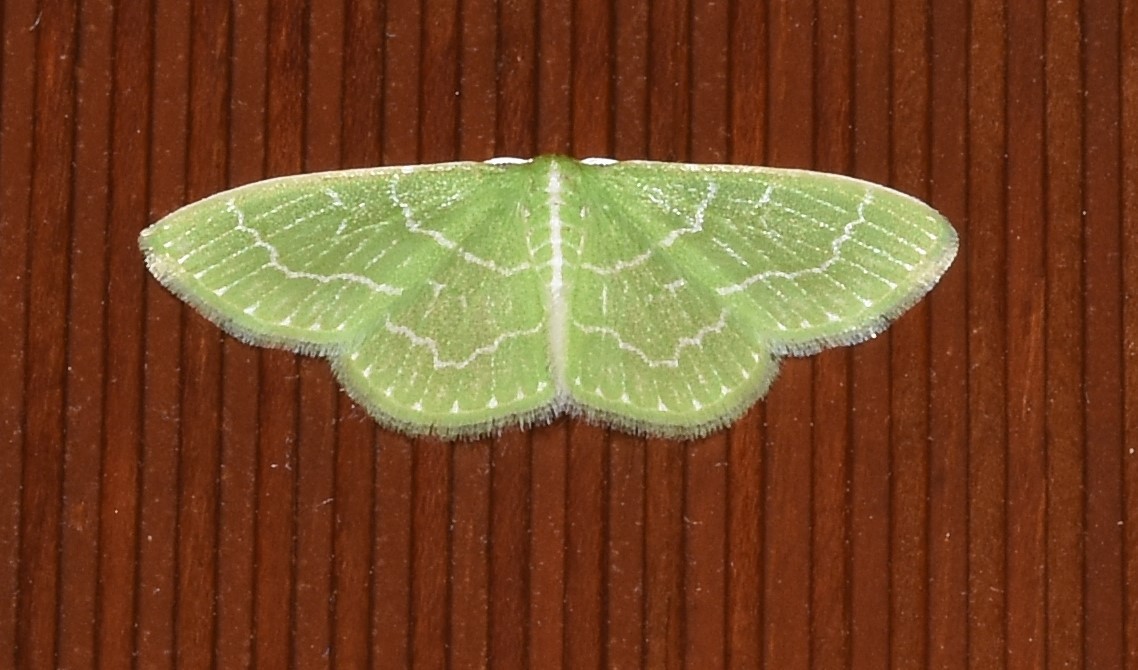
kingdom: Animalia
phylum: Arthropoda
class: Insecta
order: Lepidoptera
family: Geometridae
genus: Synchlora
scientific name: Synchlora aerata
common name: Wavy-lined emerald
